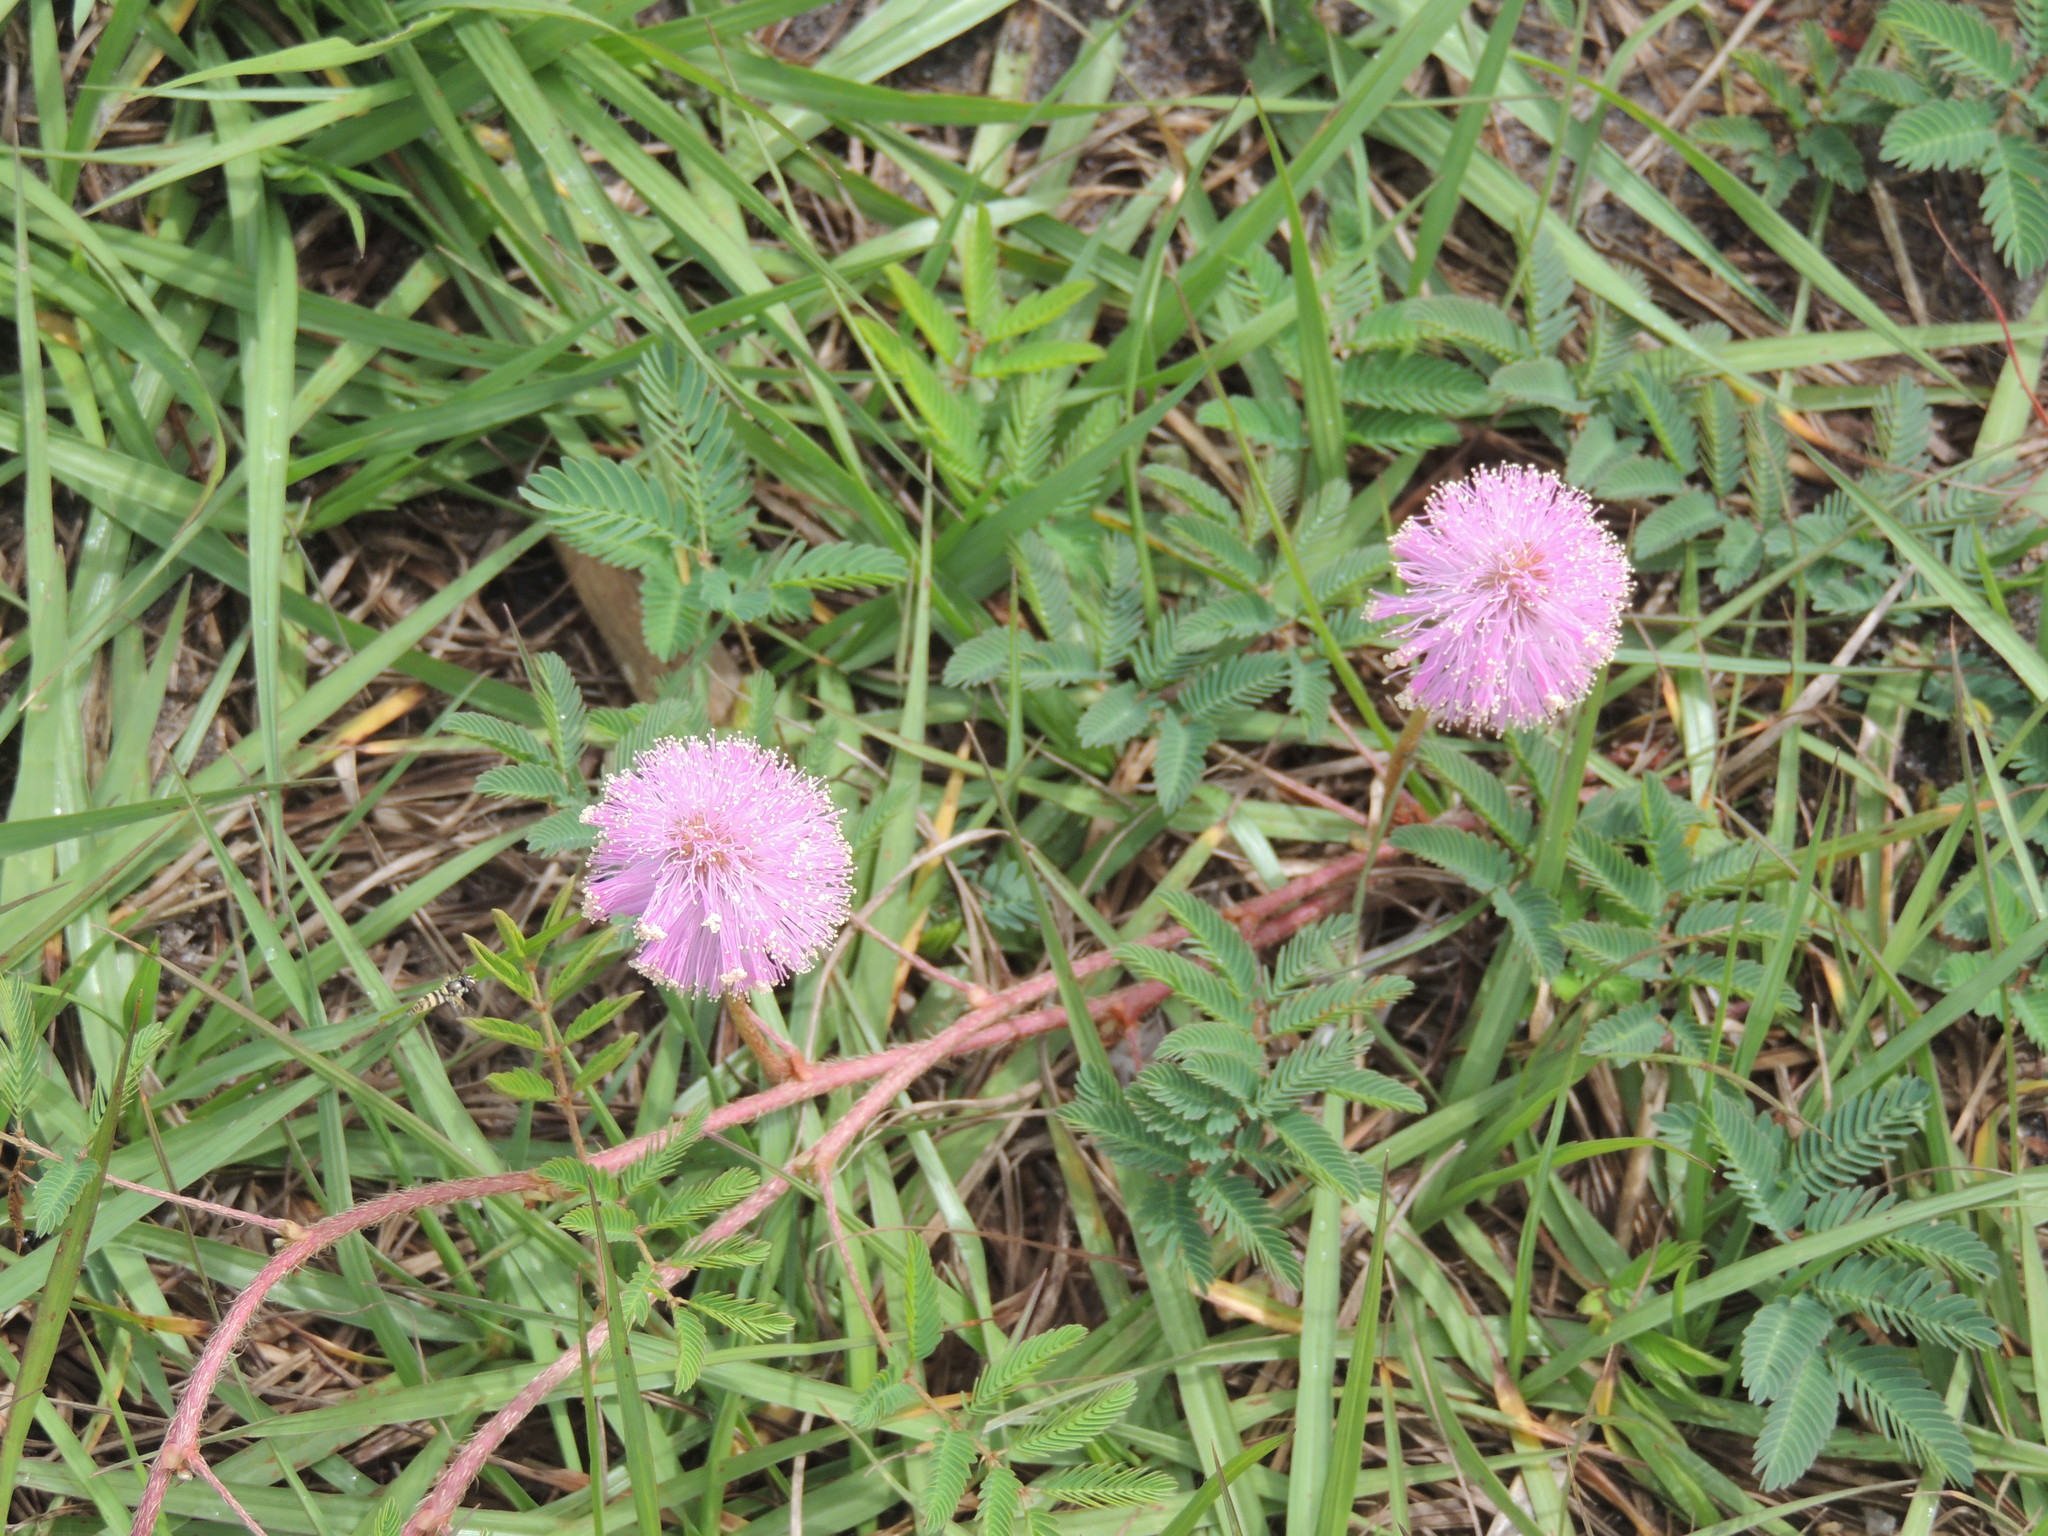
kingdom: Plantae
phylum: Tracheophyta
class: Magnoliopsida
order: Fabales
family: Fabaceae
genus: Mimosa
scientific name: Mimosa strigillosa
